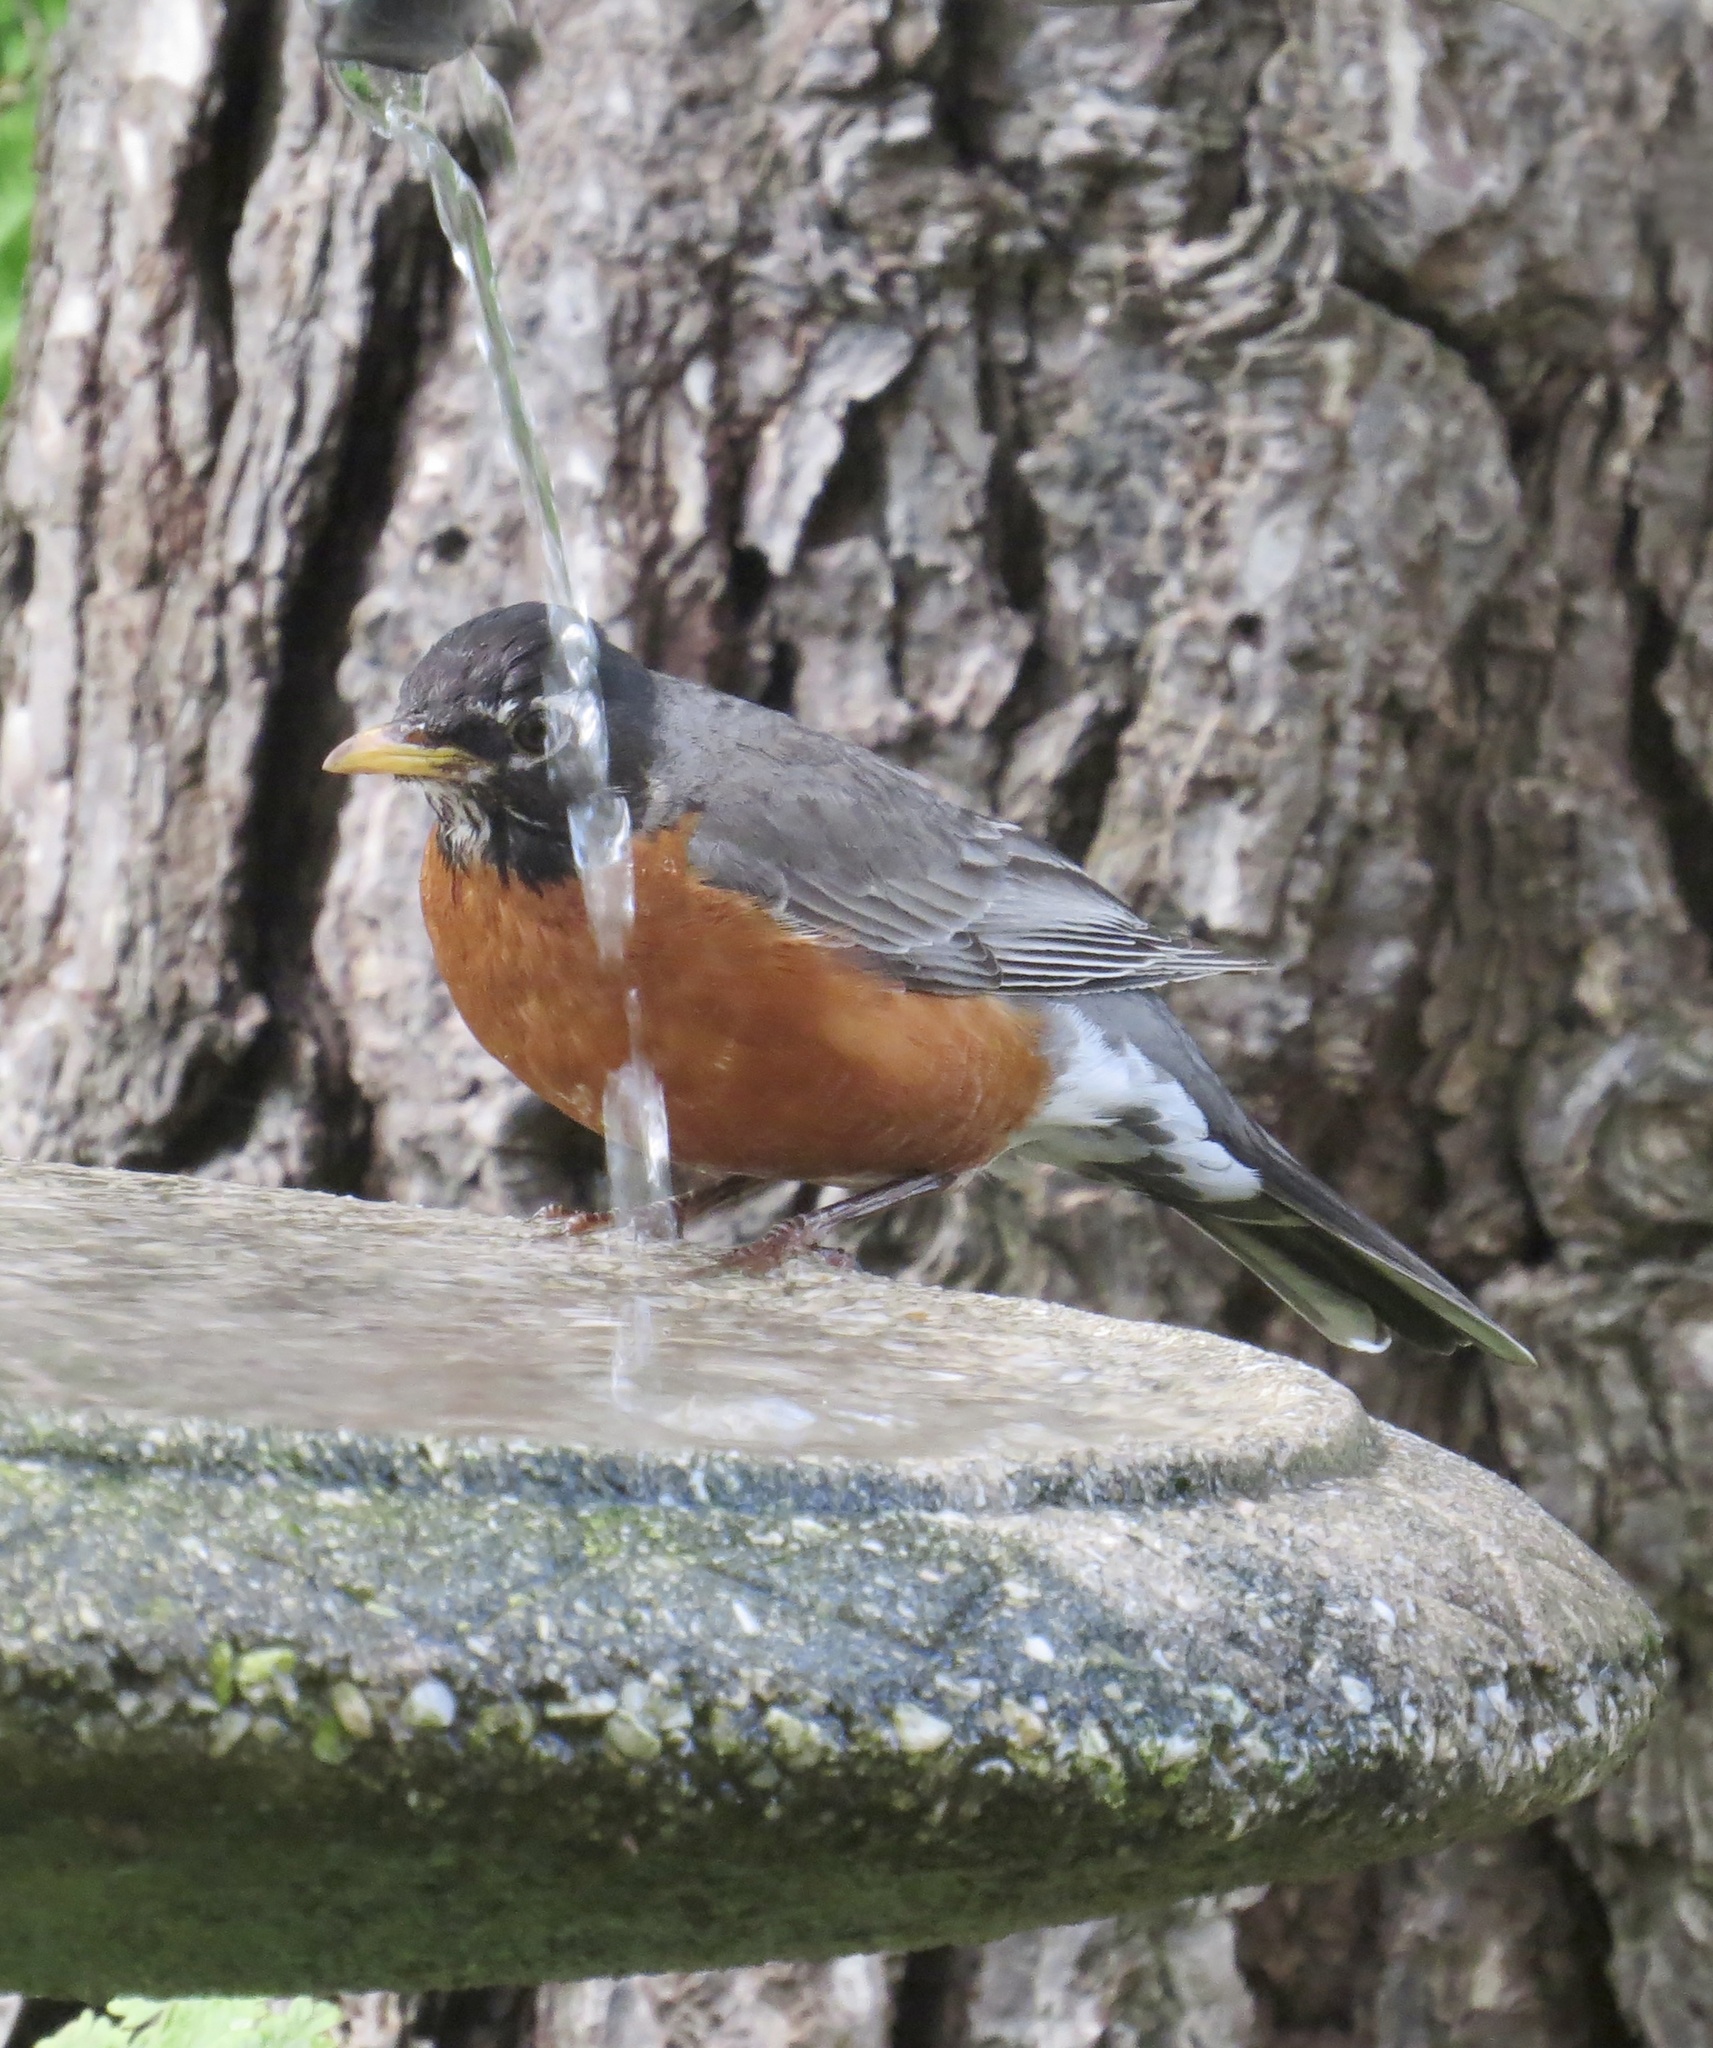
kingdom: Animalia
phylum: Chordata
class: Aves
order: Passeriformes
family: Turdidae
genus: Turdus
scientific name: Turdus migratorius
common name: American robin
